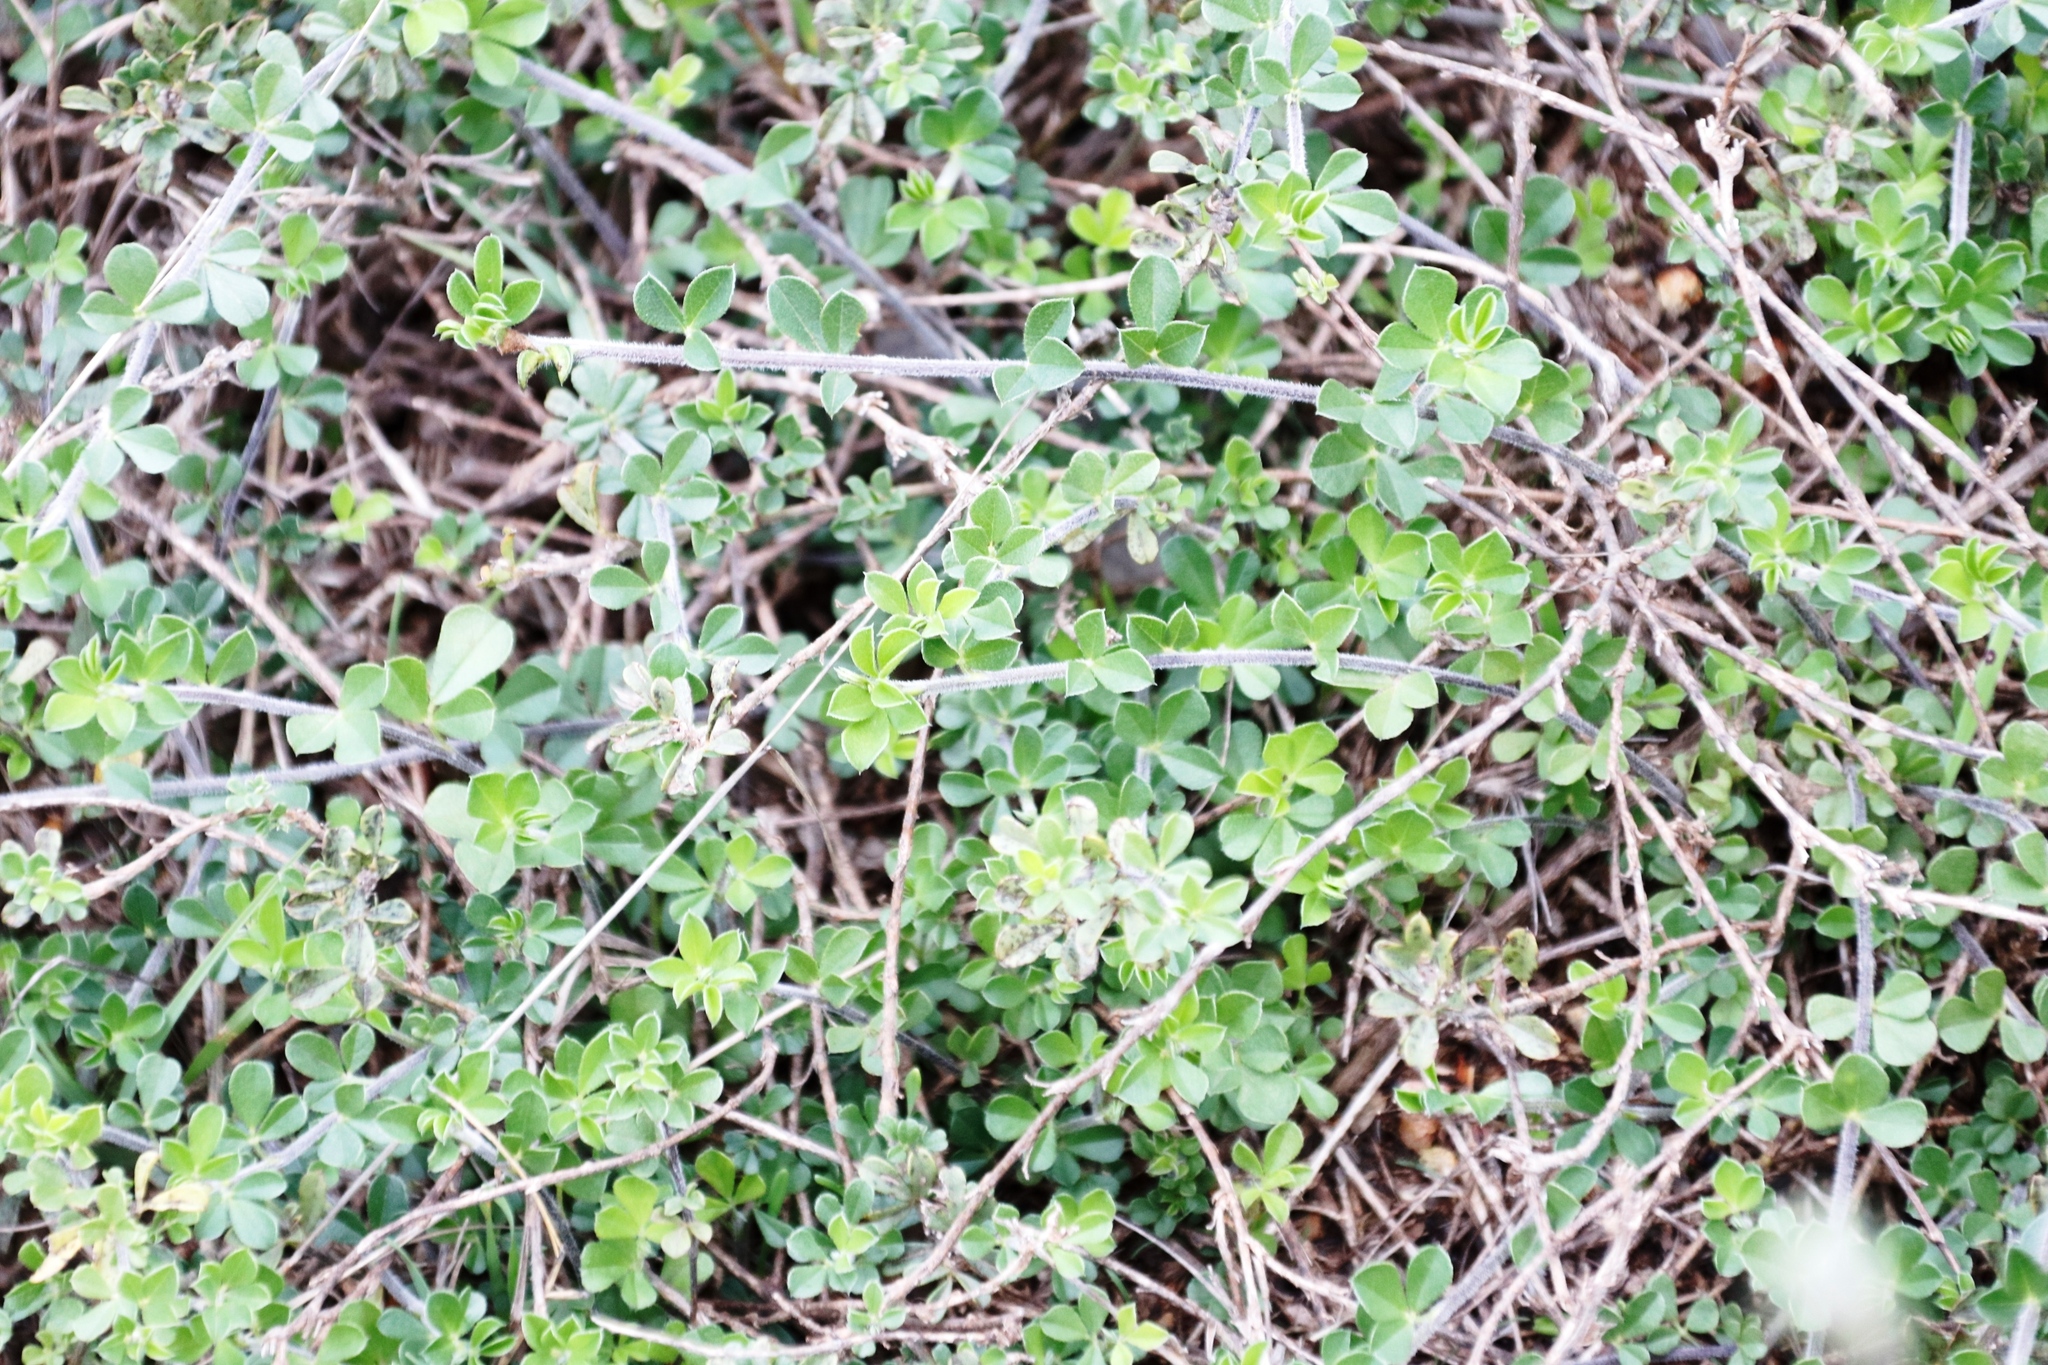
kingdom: Plantae
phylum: Tracheophyta
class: Magnoliopsida
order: Fabales
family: Fabaceae
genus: Psoralea
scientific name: Psoralea
